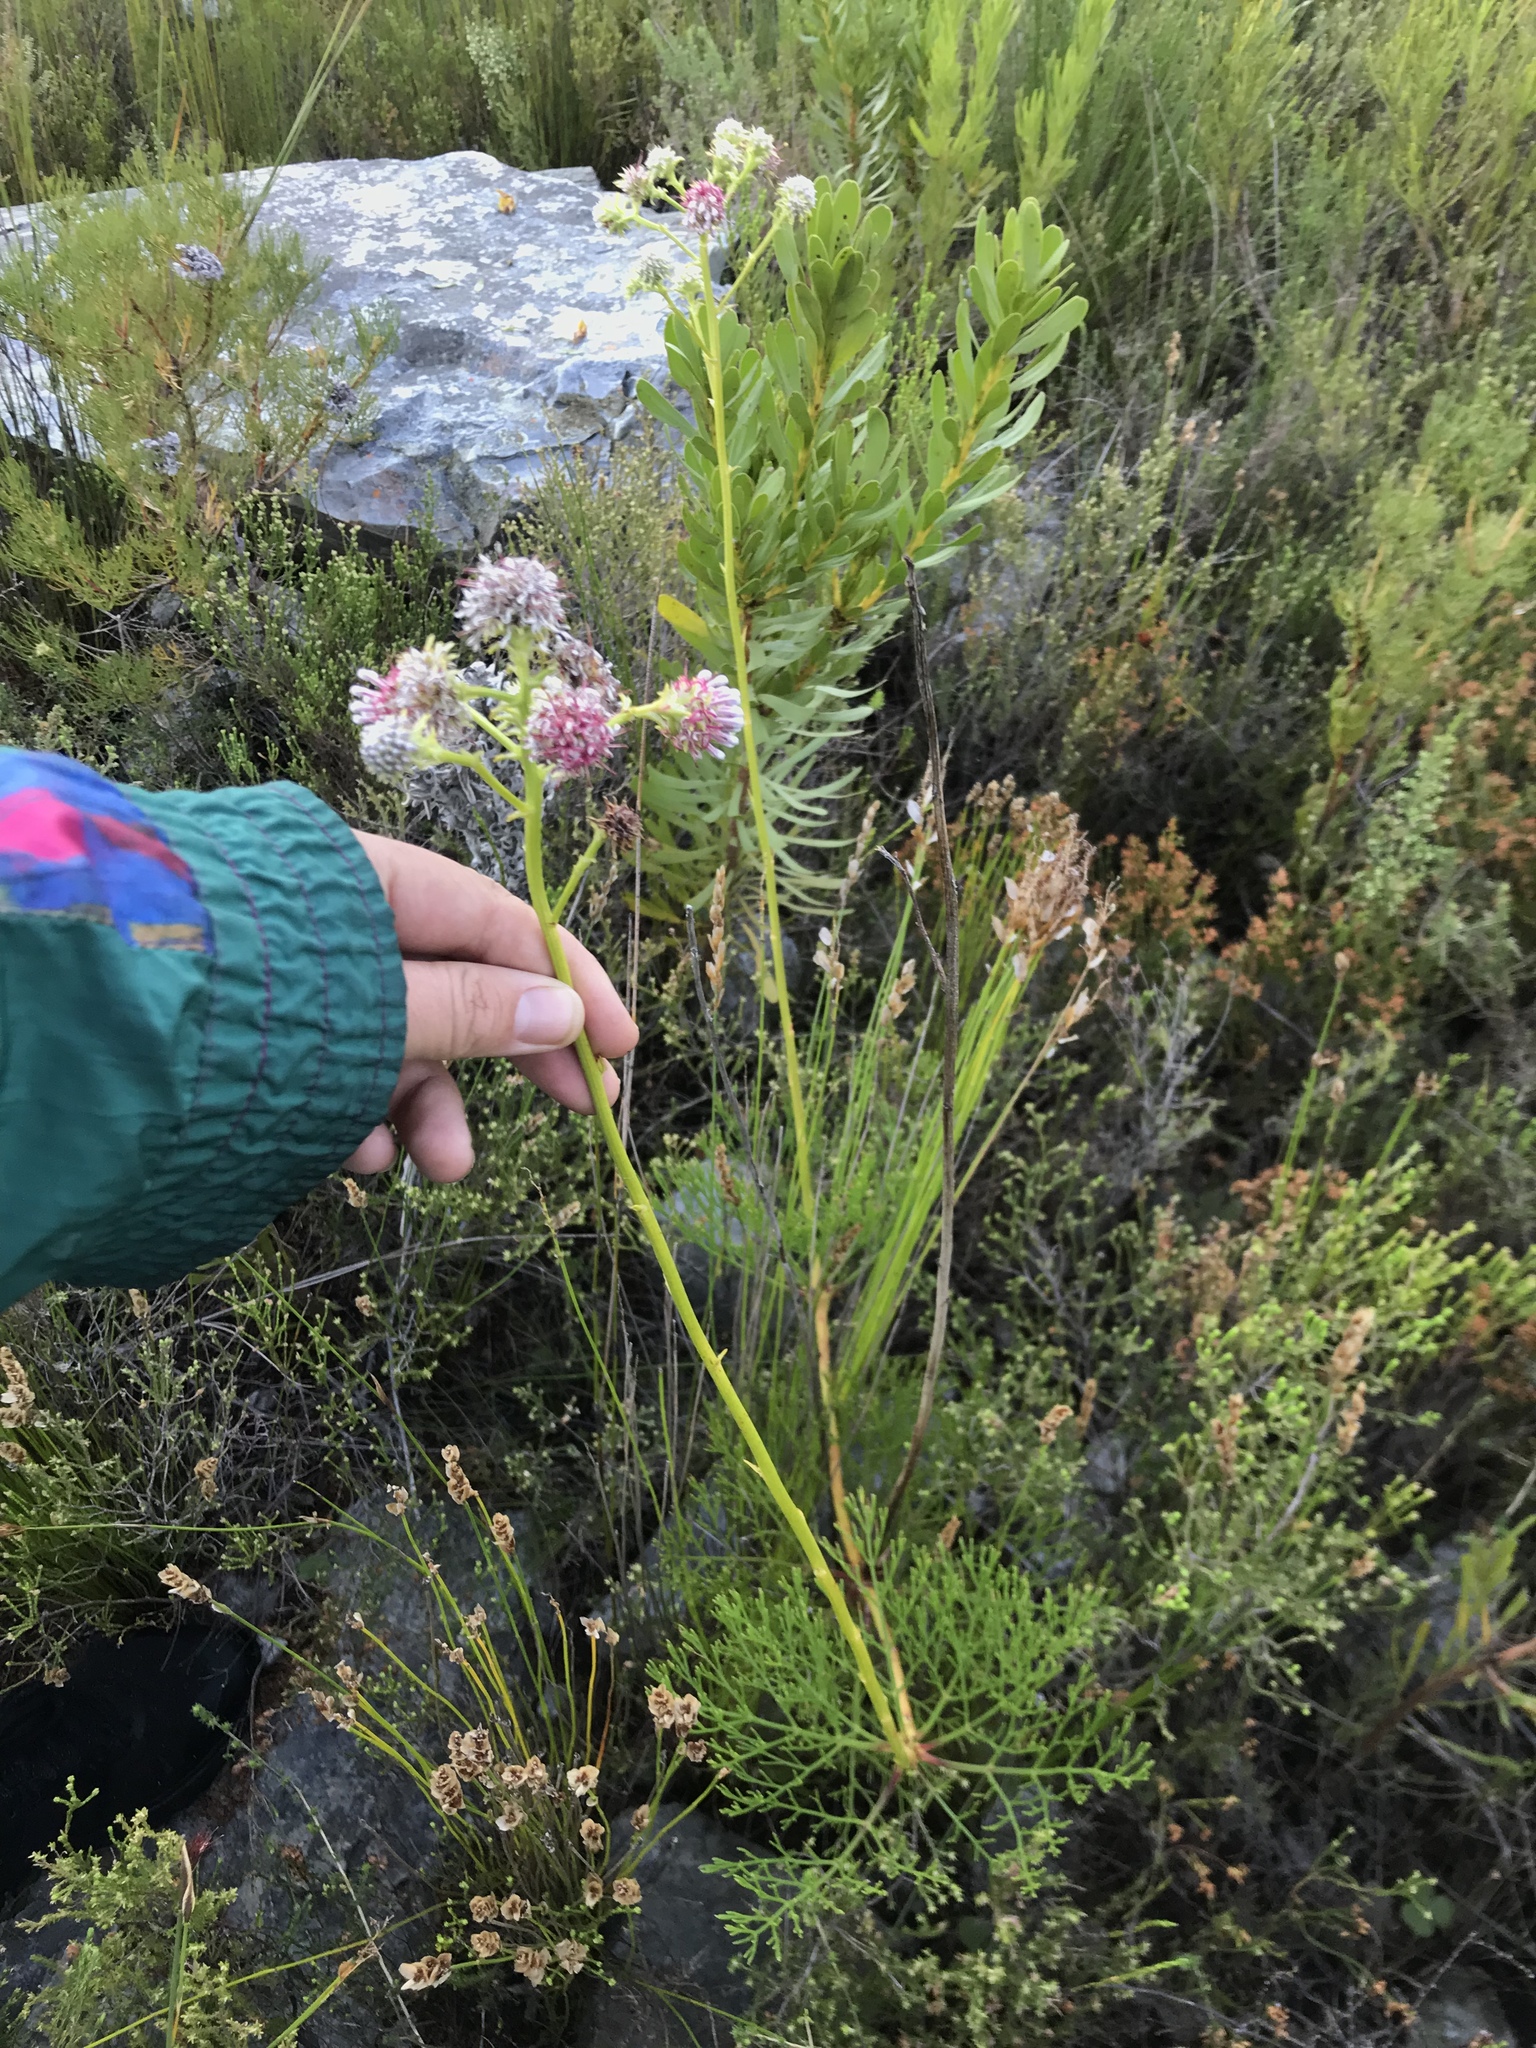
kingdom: Plantae
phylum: Tracheophyta
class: Magnoliopsida
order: Proteales
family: Proteaceae
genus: Serruria
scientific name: Serruria elongata
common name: Long-stalk spiderhead
